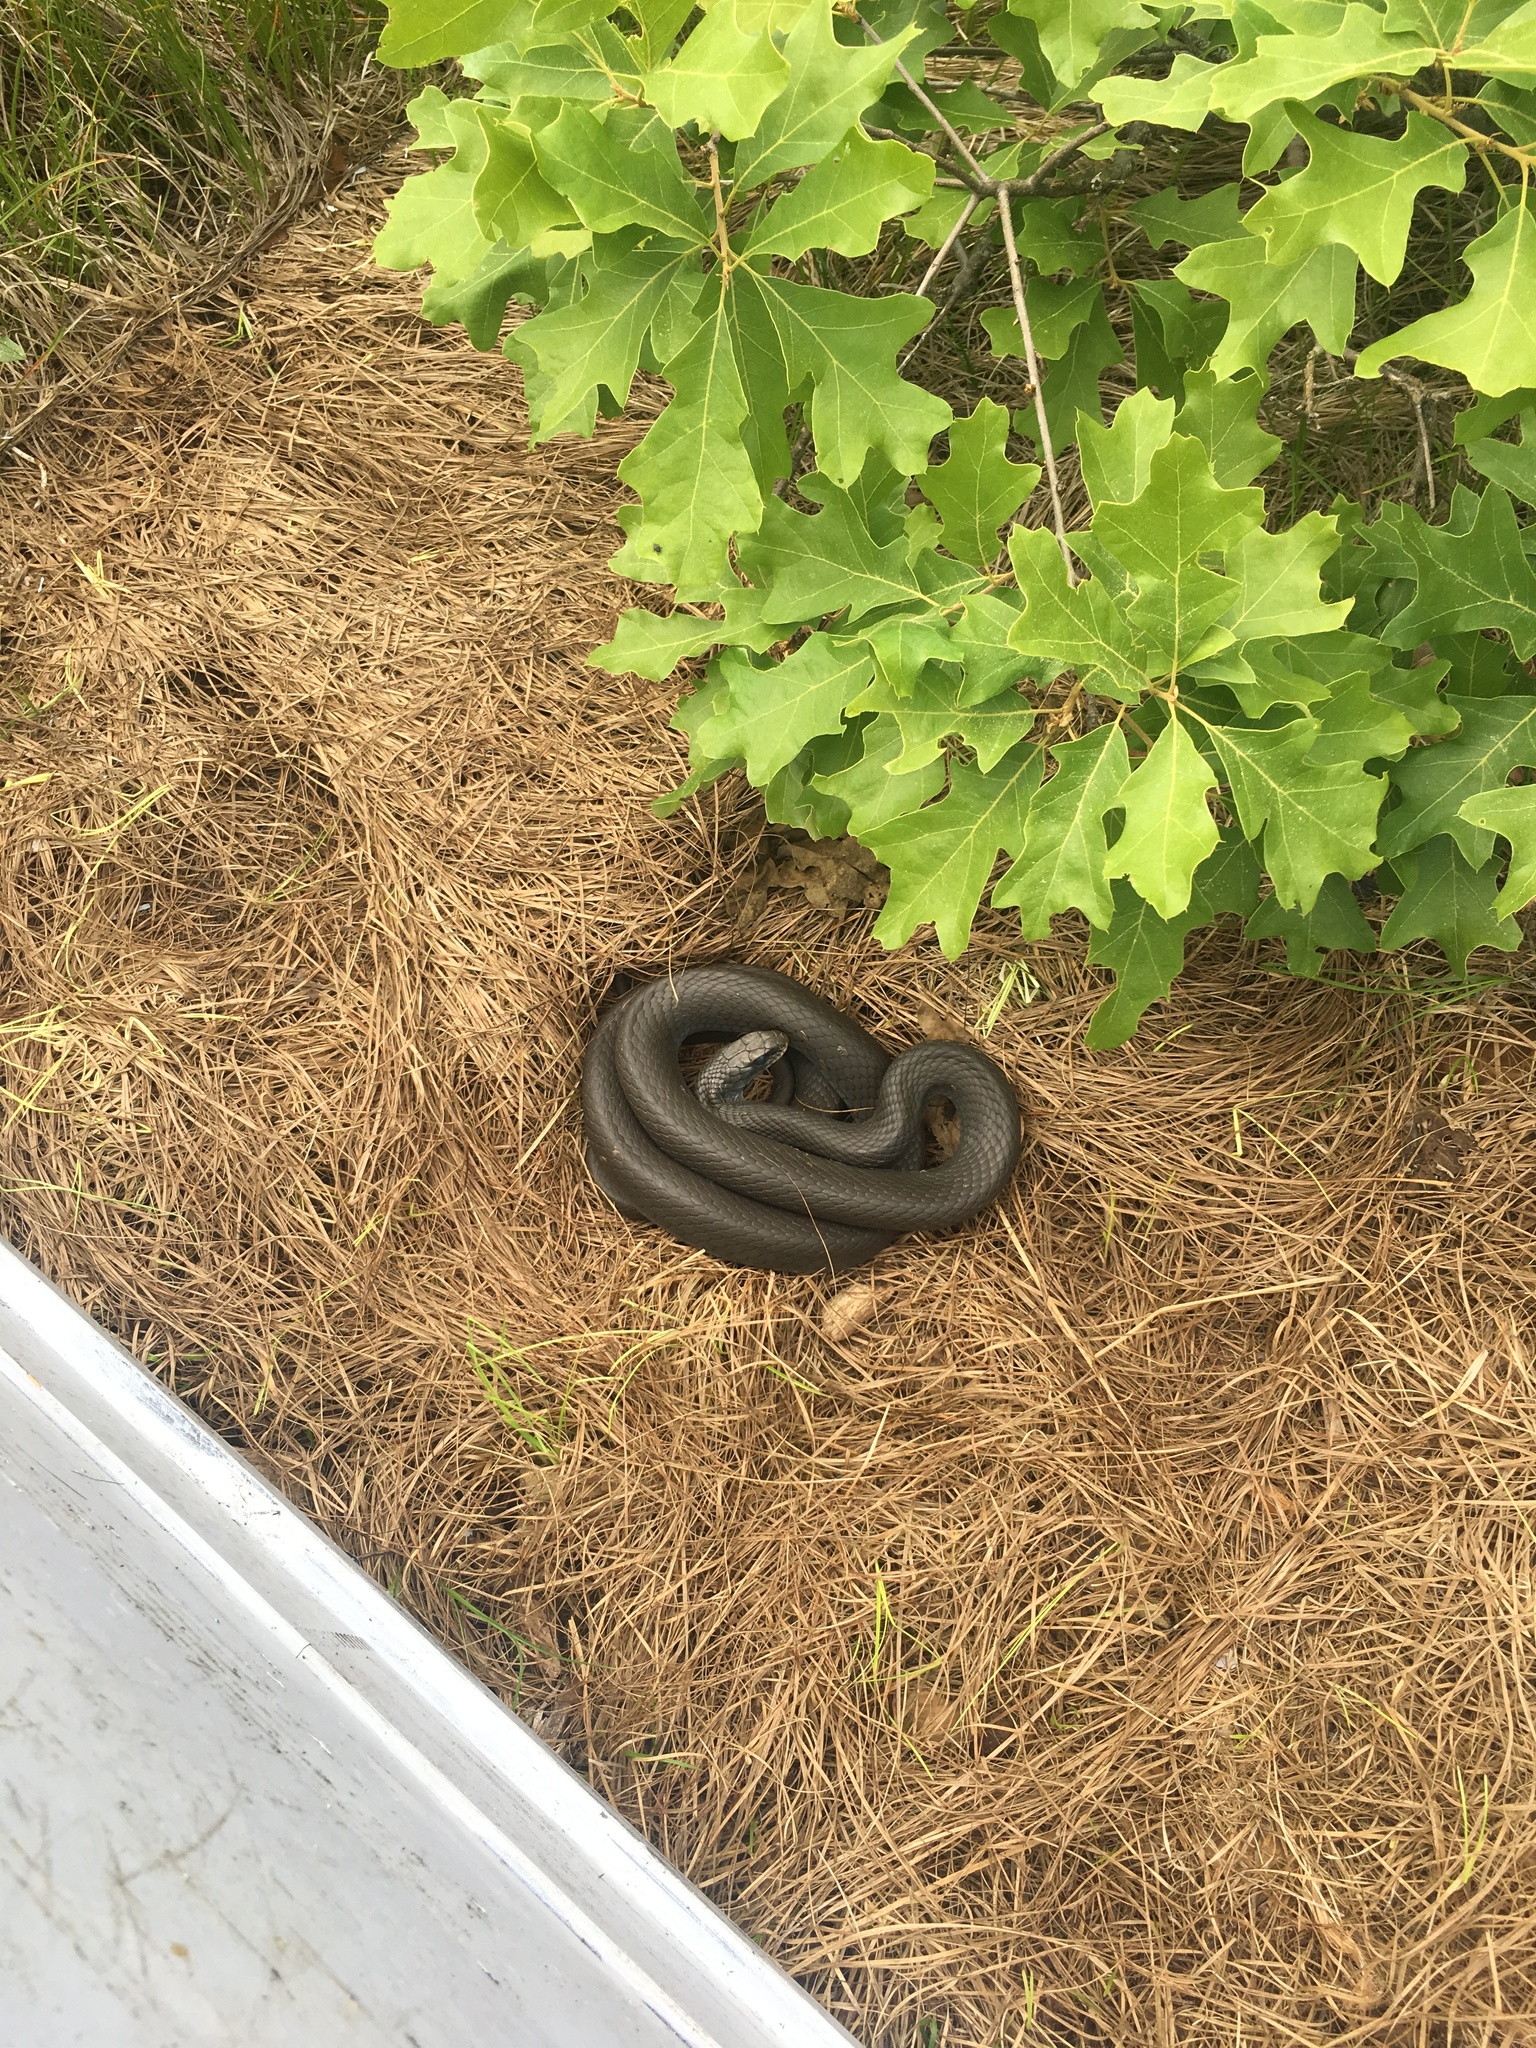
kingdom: Animalia
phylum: Chordata
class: Squamata
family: Colubridae
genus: Coluber
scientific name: Coluber constrictor
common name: Eastern racer
